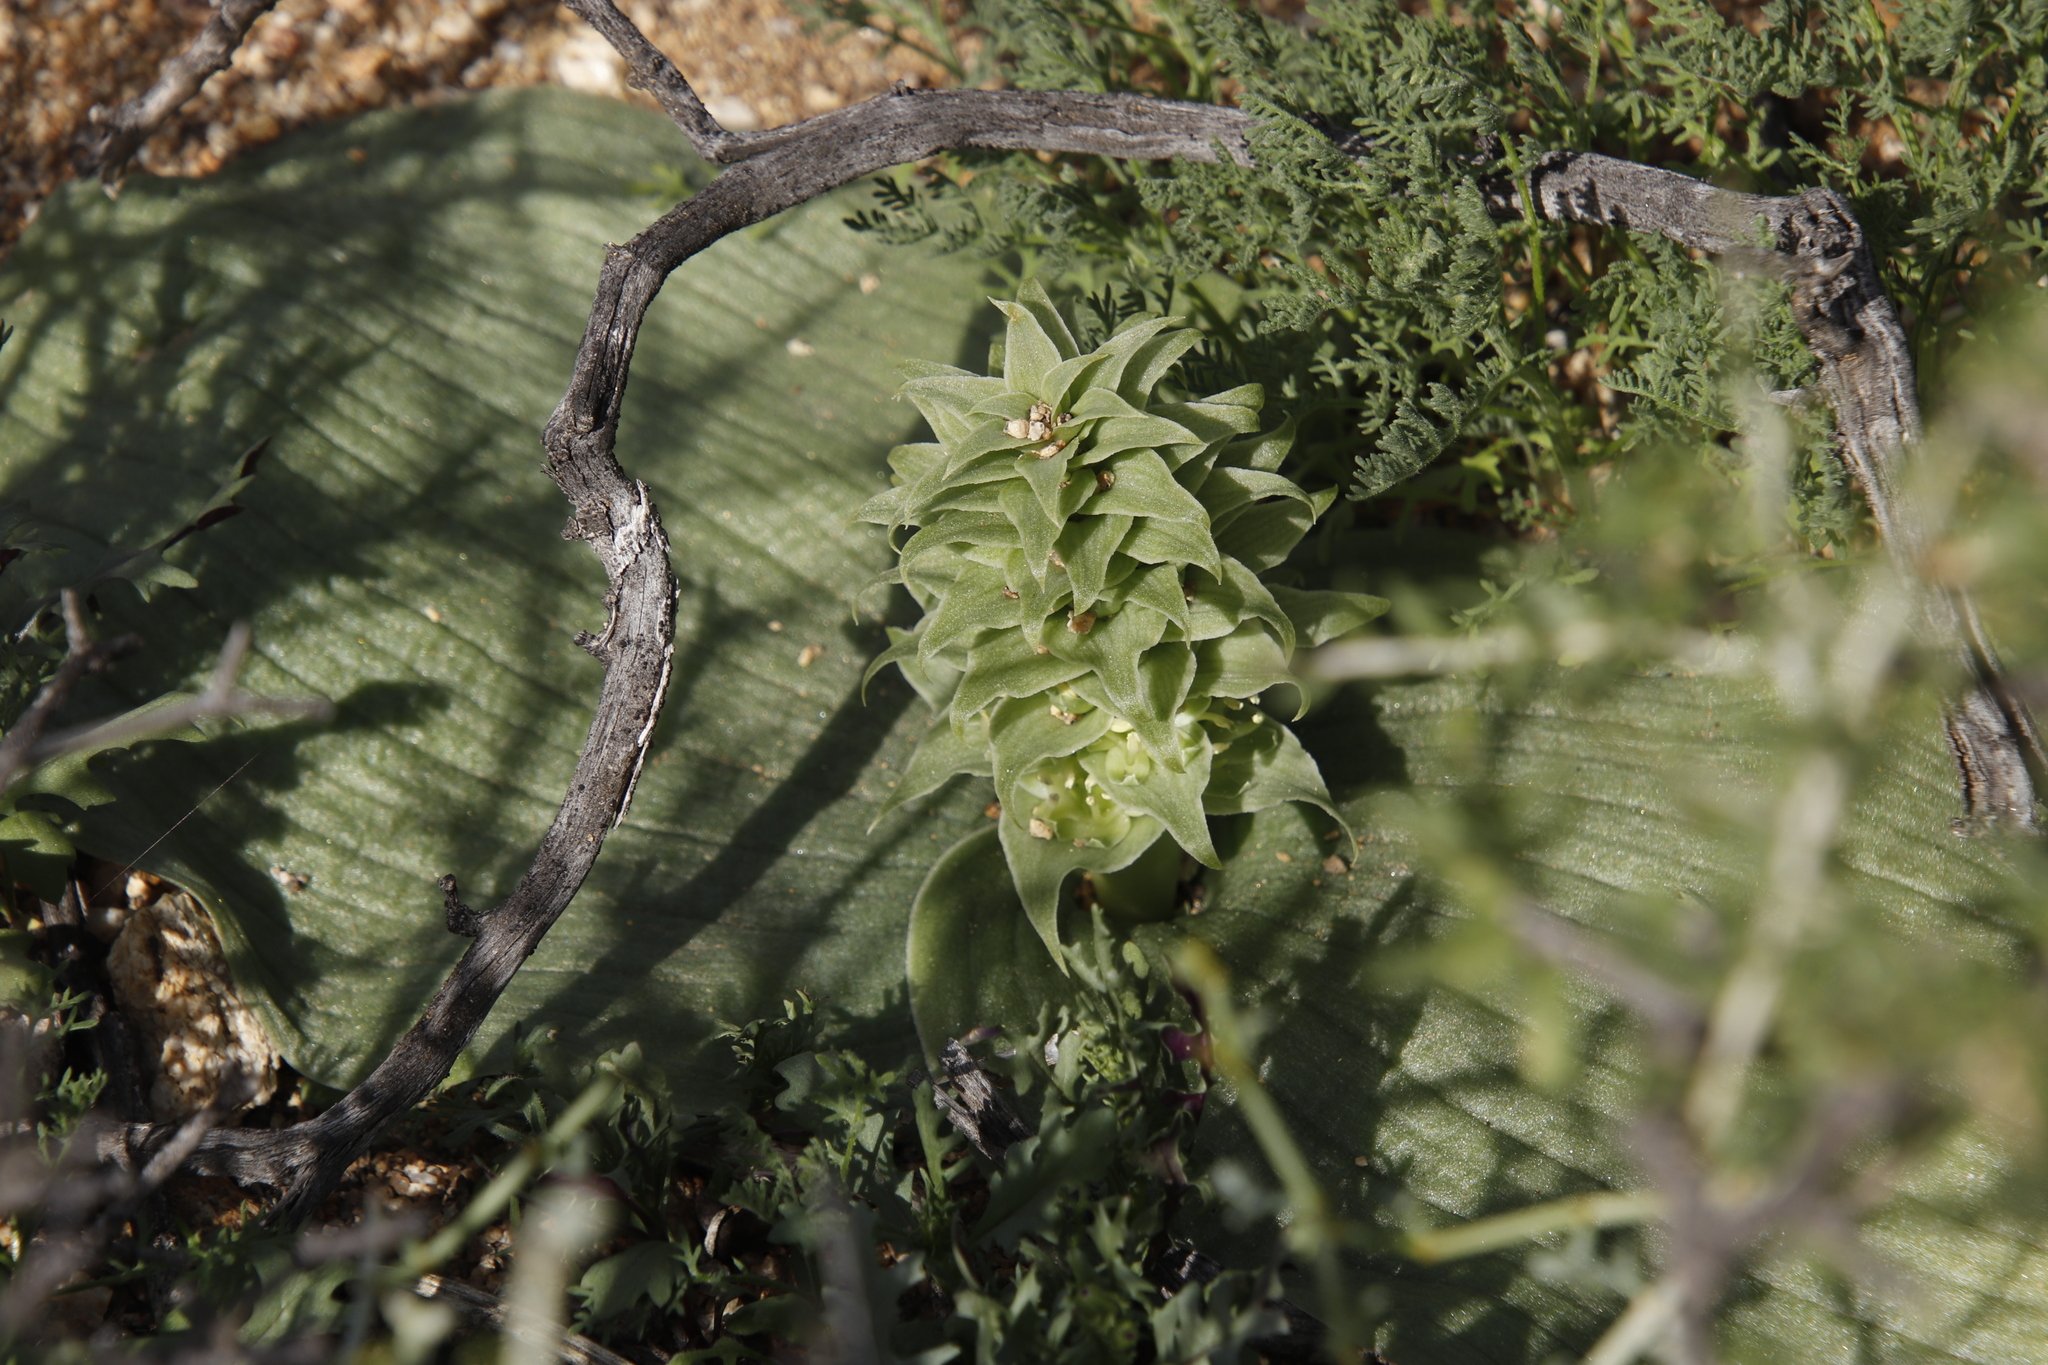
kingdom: Plantae
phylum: Tracheophyta
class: Liliopsida
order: Asparagales
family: Asparagaceae
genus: Massonia
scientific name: Massonia bifolia
